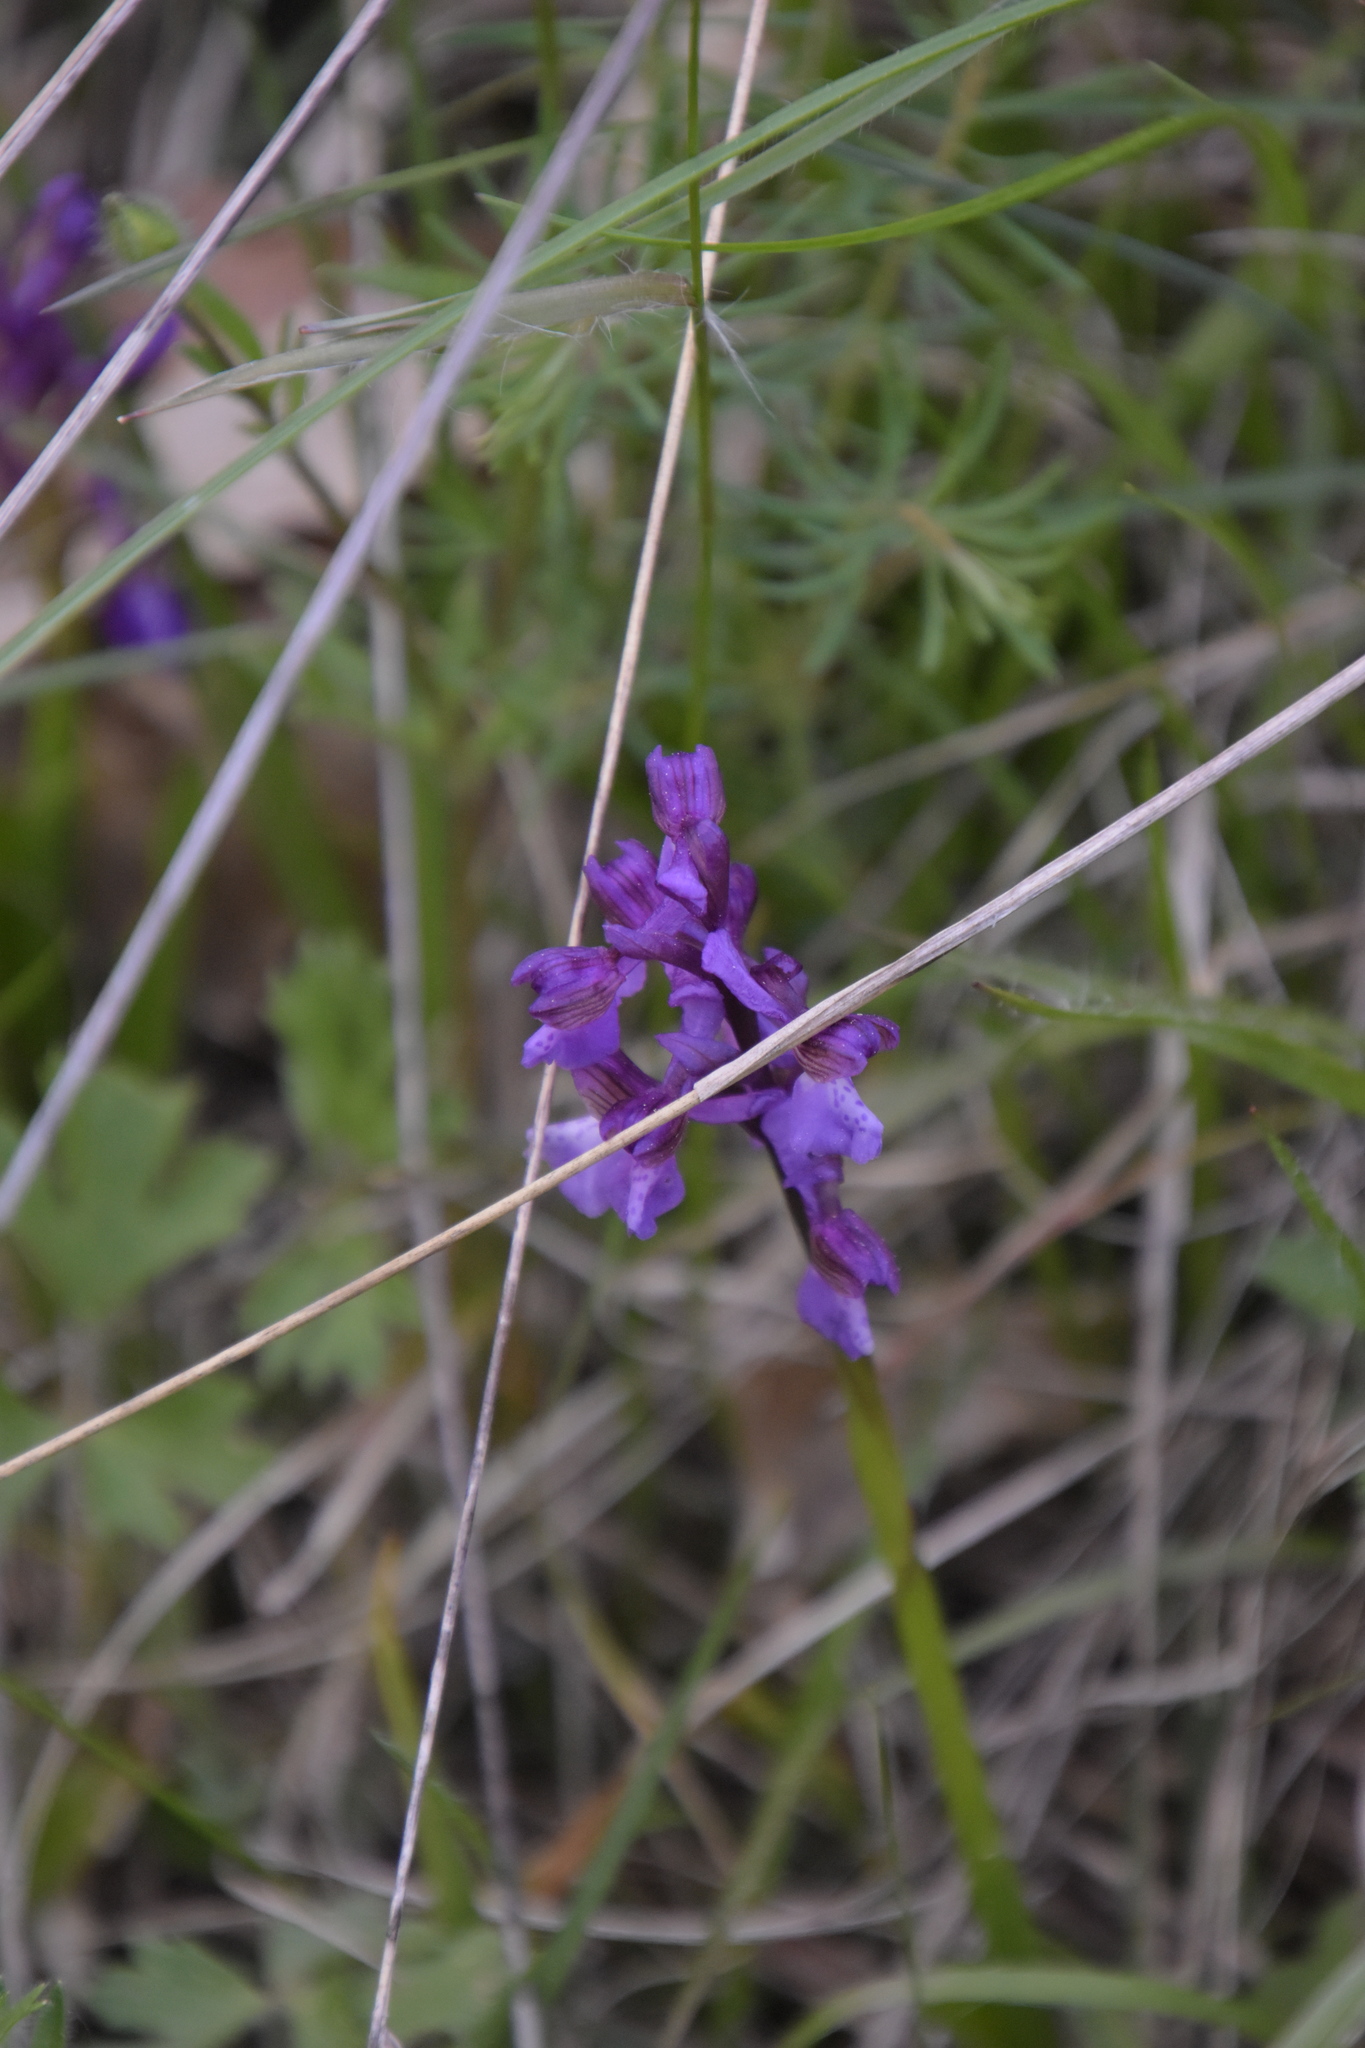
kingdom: Plantae
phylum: Tracheophyta
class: Liliopsida
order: Asparagales
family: Orchidaceae
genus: Anacamptis
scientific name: Anacamptis morio
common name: Green-winged orchid
